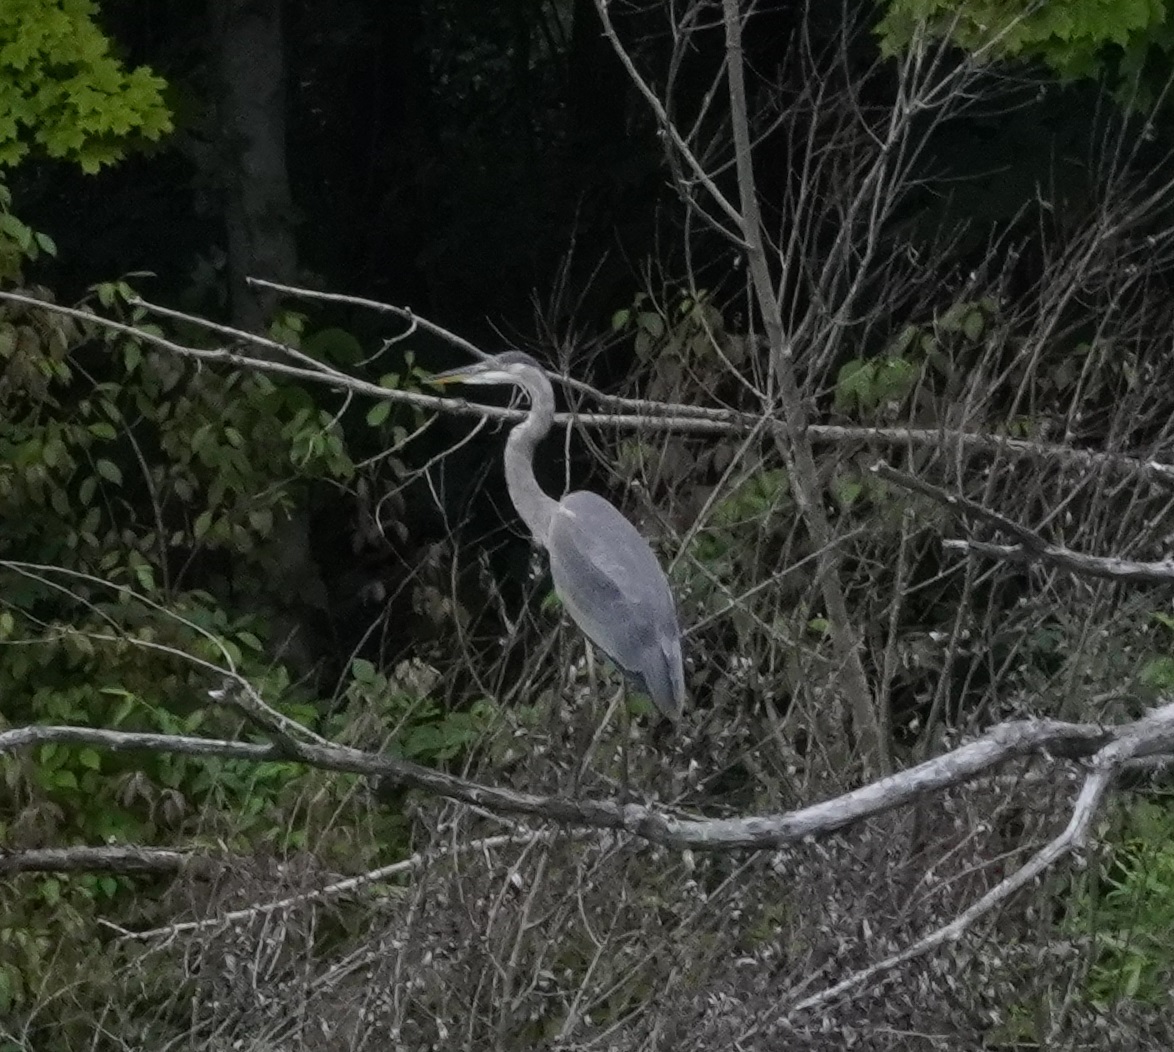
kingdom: Animalia
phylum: Chordata
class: Aves
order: Pelecaniformes
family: Ardeidae
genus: Ardea
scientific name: Ardea herodias
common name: Great blue heron
